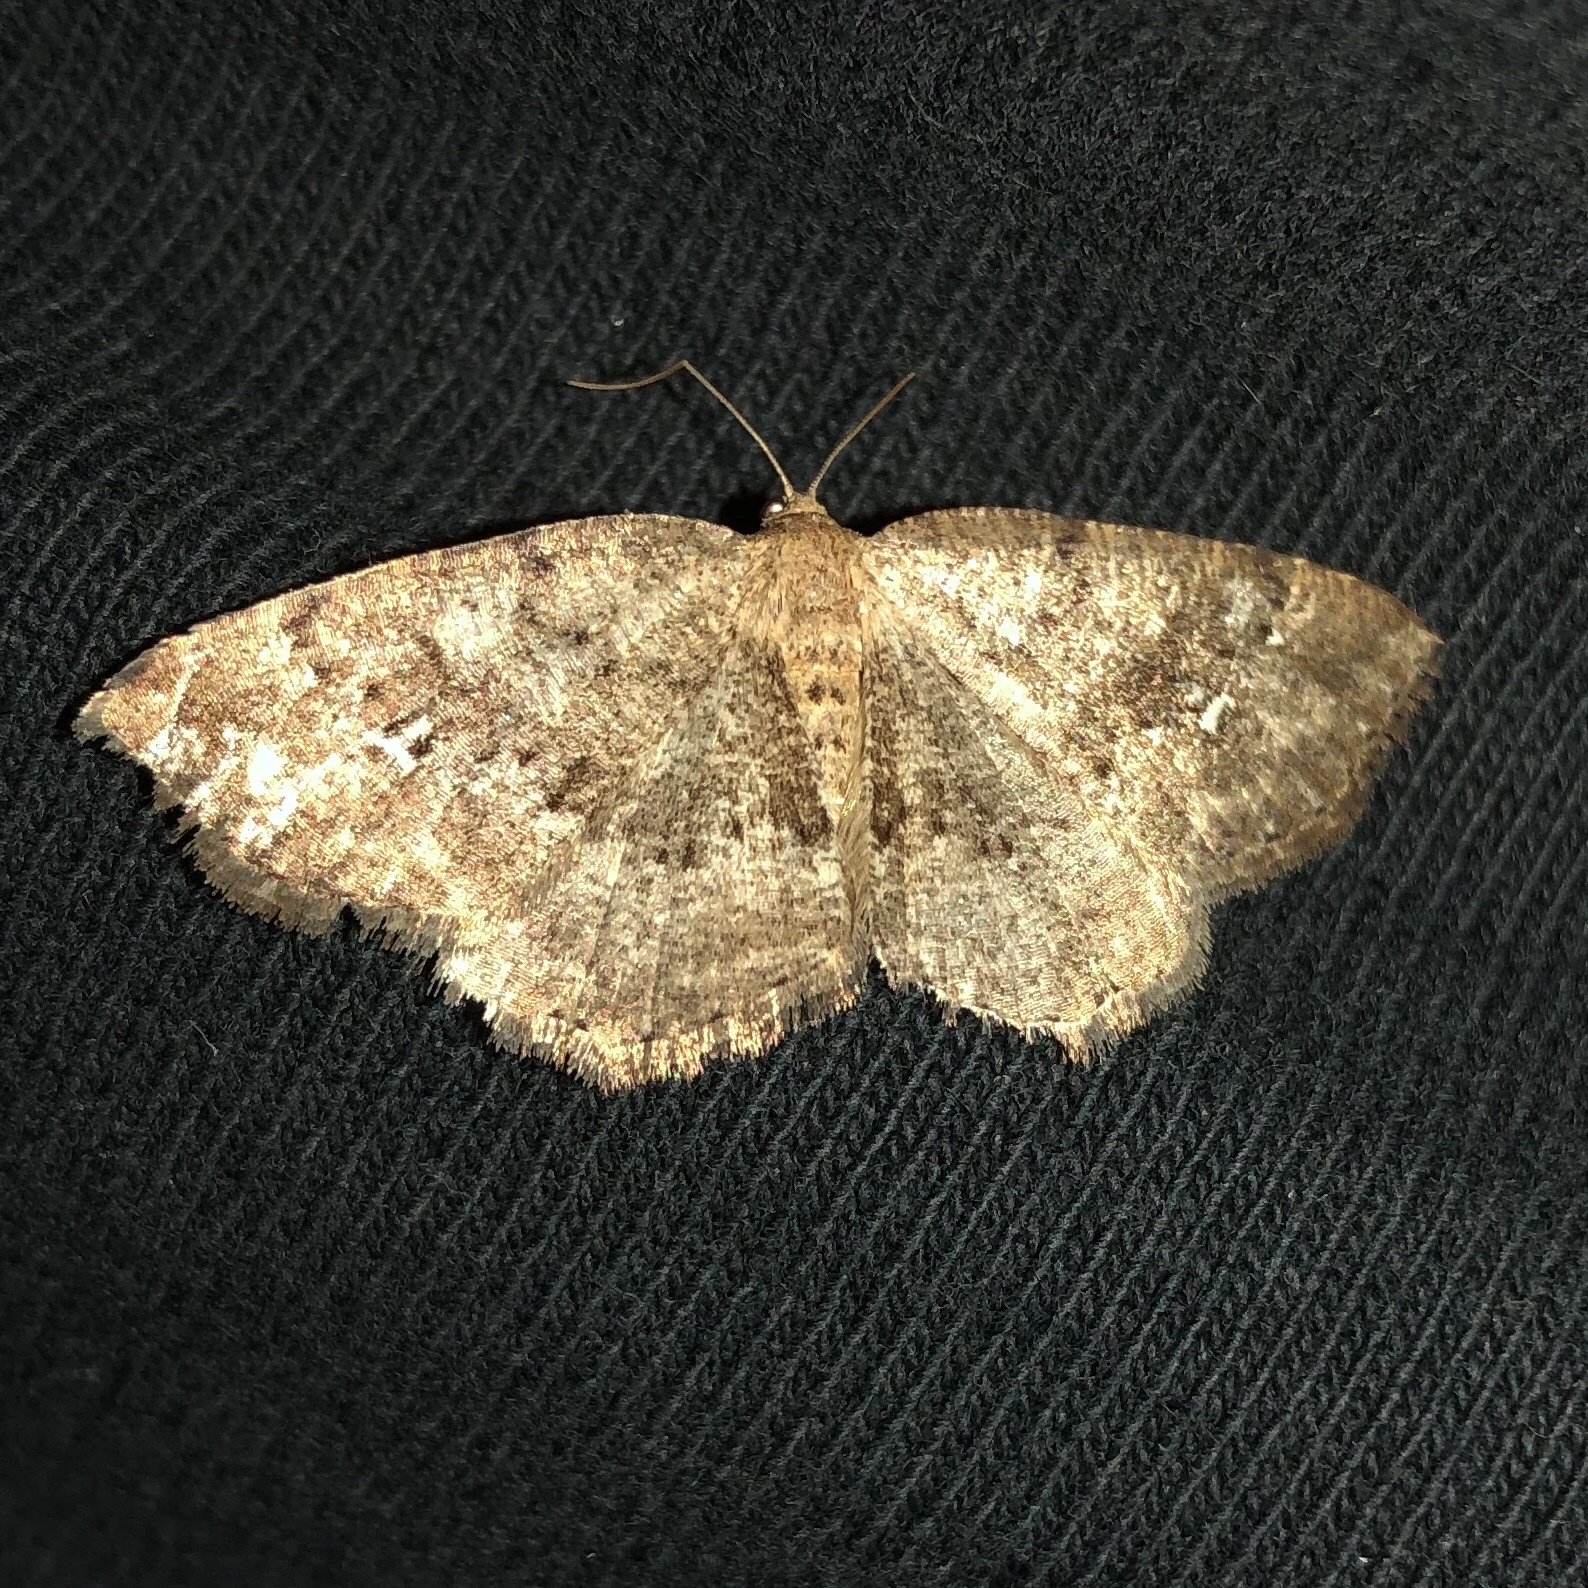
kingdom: Animalia
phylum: Arthropoda
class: Insecta
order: Lepidoptera
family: Geometridae
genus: Homochlodes
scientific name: Homochlodes fritillaria
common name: Pale homochlodes
